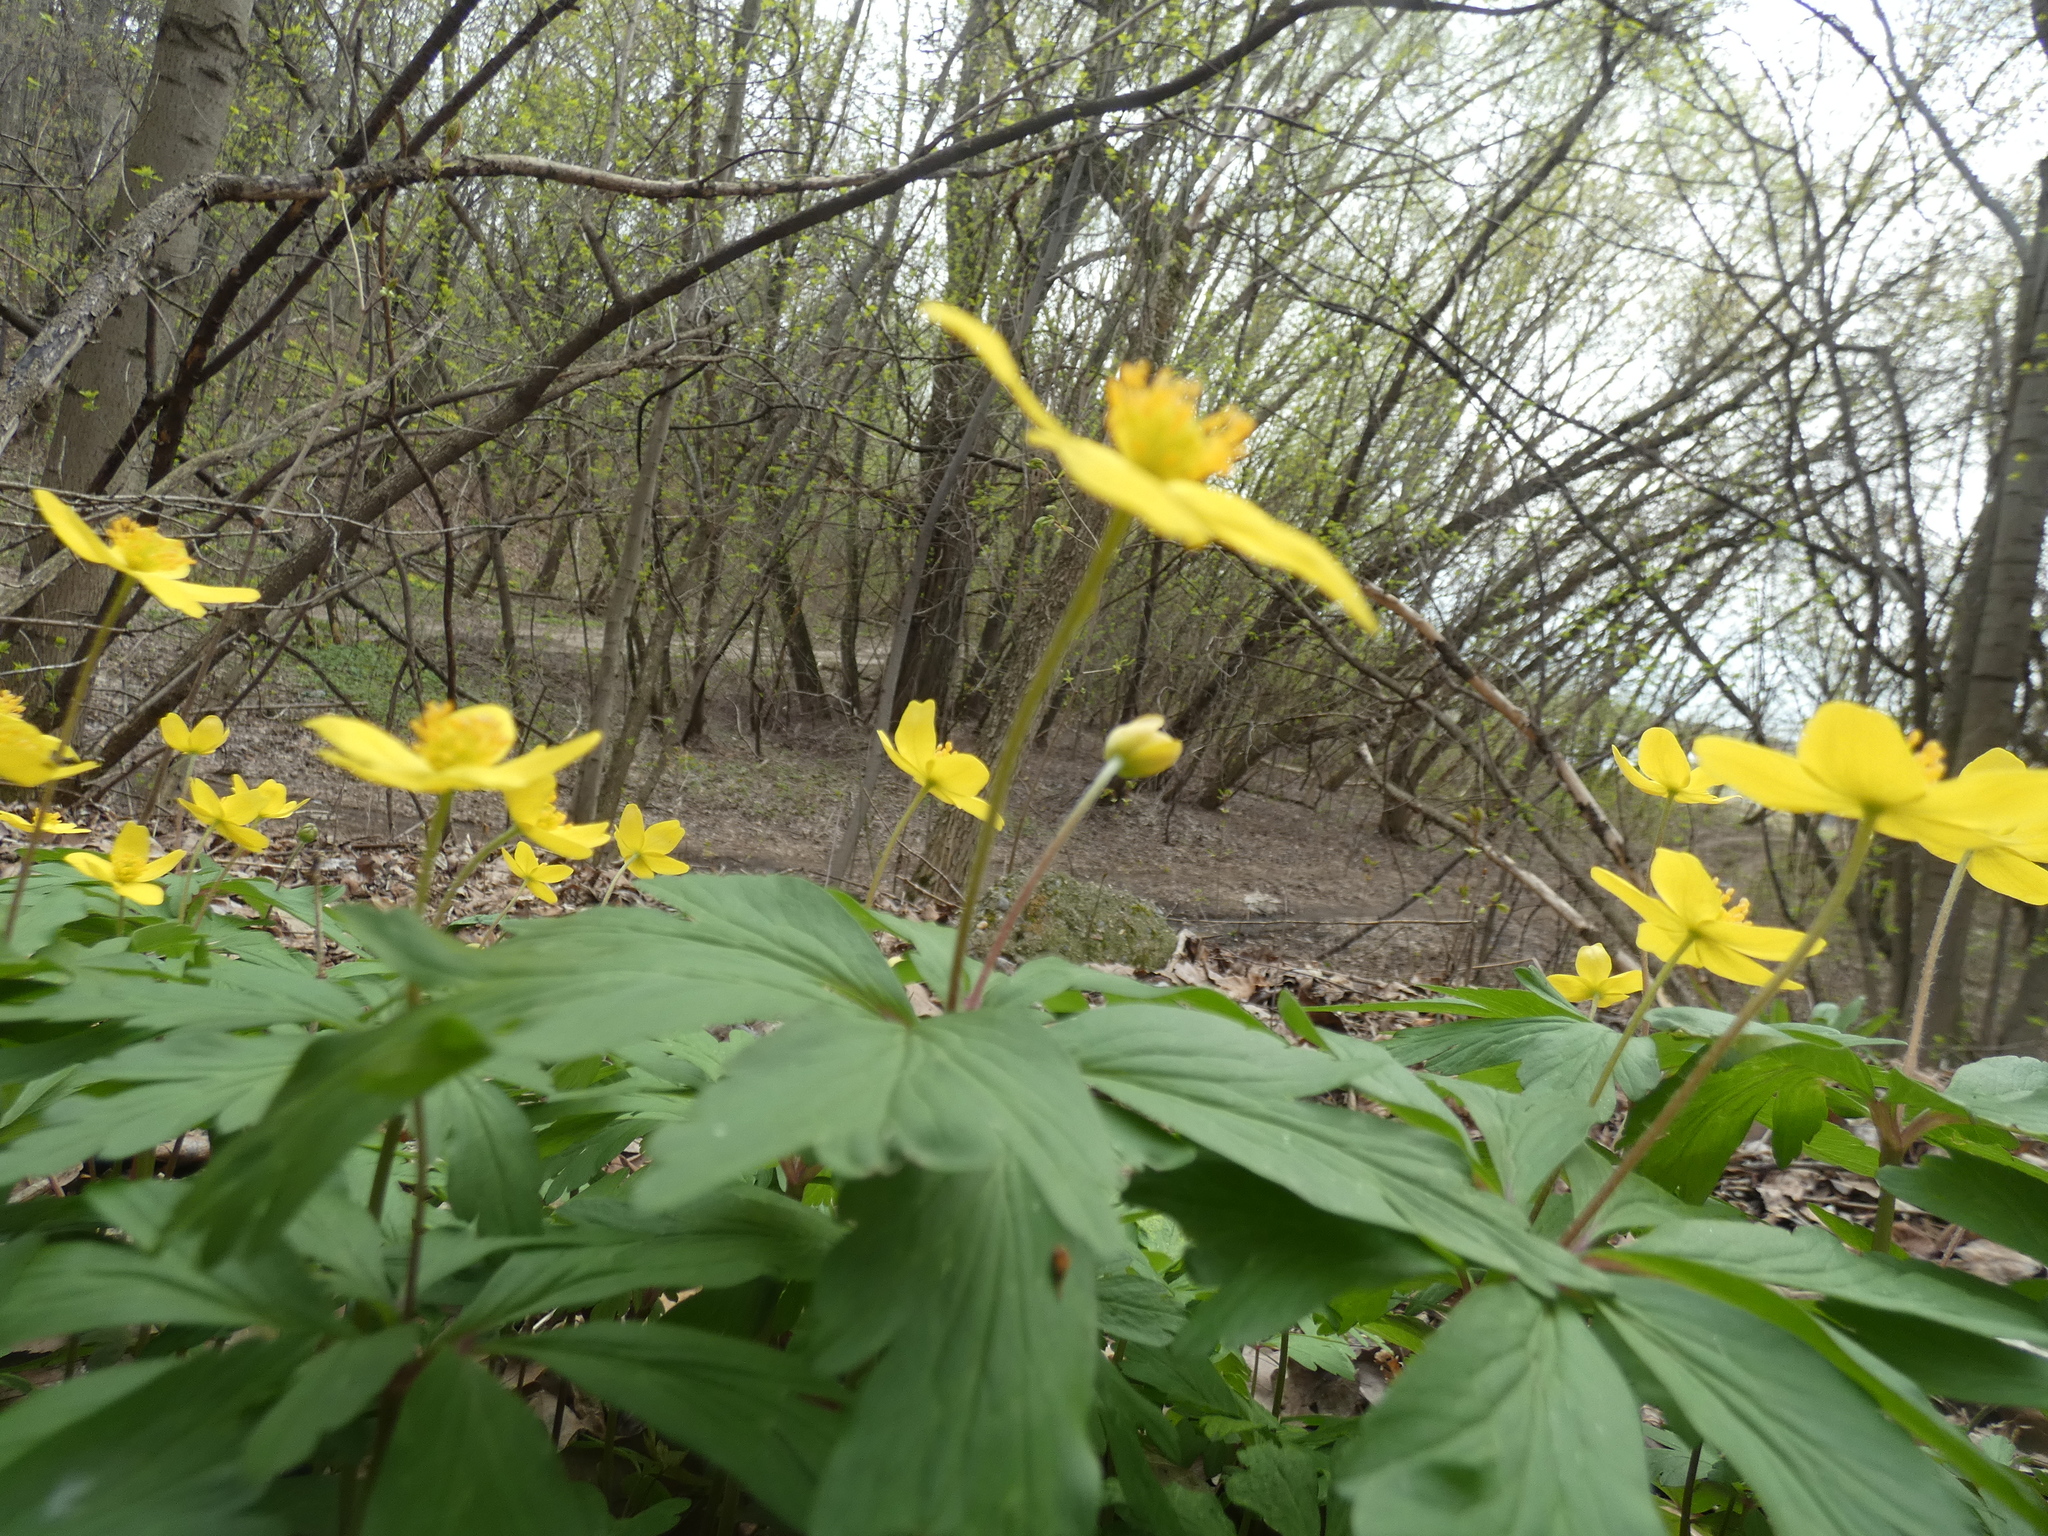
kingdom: Plantae
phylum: Tracheophyta
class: Magnoliopsida
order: Ranunculales
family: Ranunculaceae
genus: Anemone
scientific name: Anemone ranunculoides
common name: Yellow anemone
